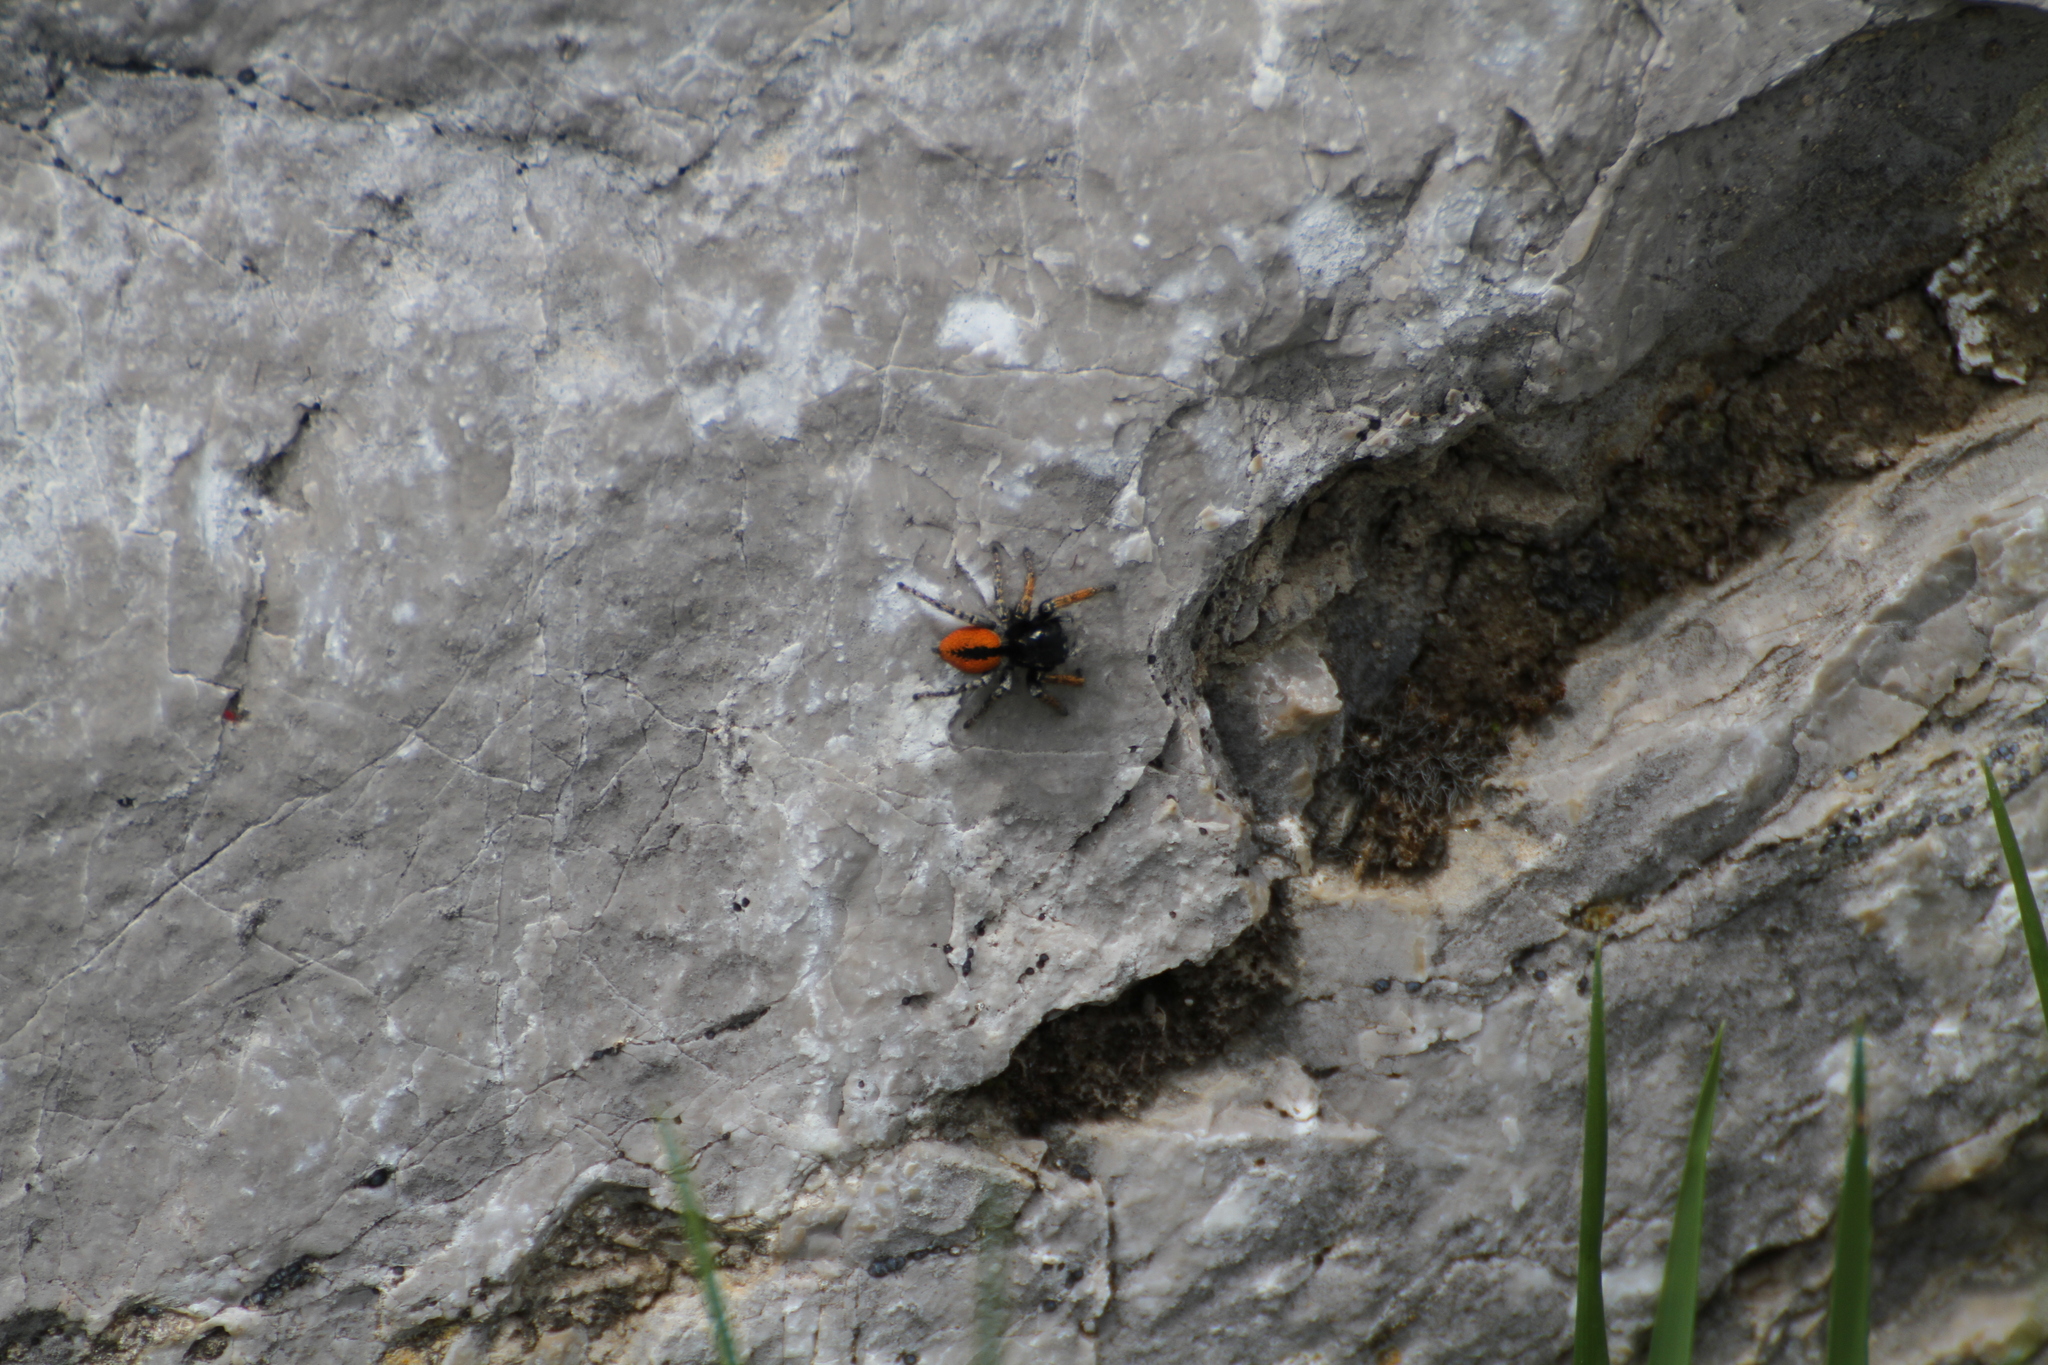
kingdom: Animalia
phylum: Arthropoda
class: Arachnida
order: Araneae
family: Salticidae
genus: Philaeus
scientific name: Philaeus chrysops
